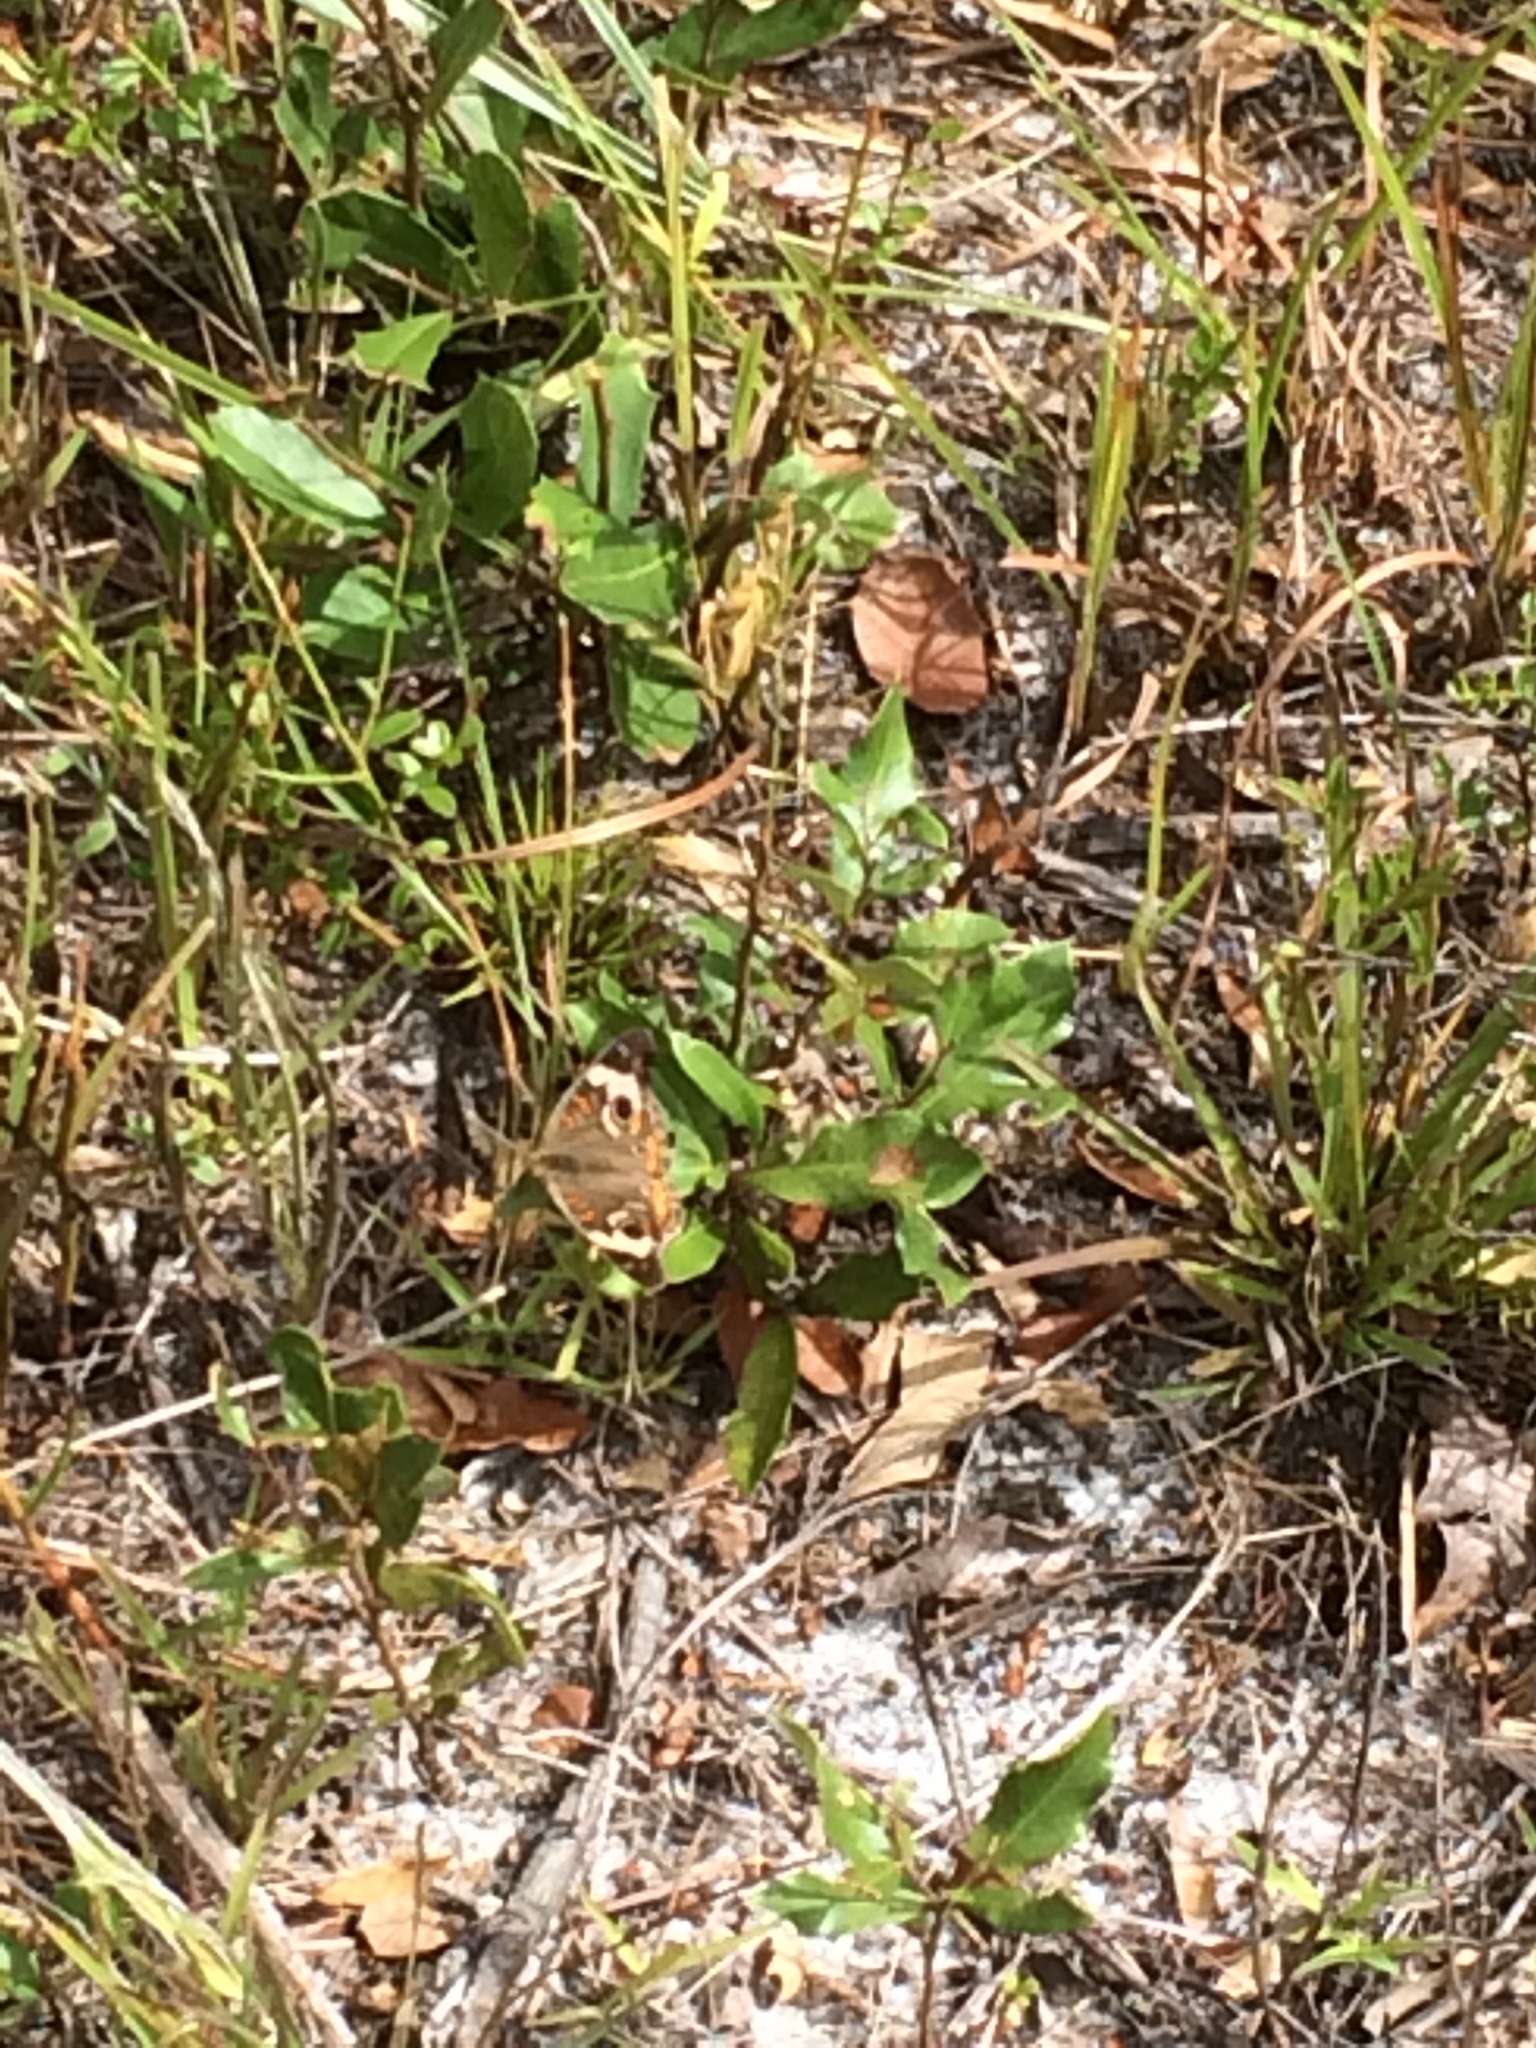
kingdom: Animalia
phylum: Arthropoda
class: Insecta
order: Lepidoptera
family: Nymphalidae
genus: Junonia
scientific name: Junonia coenia
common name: Common buckeye
